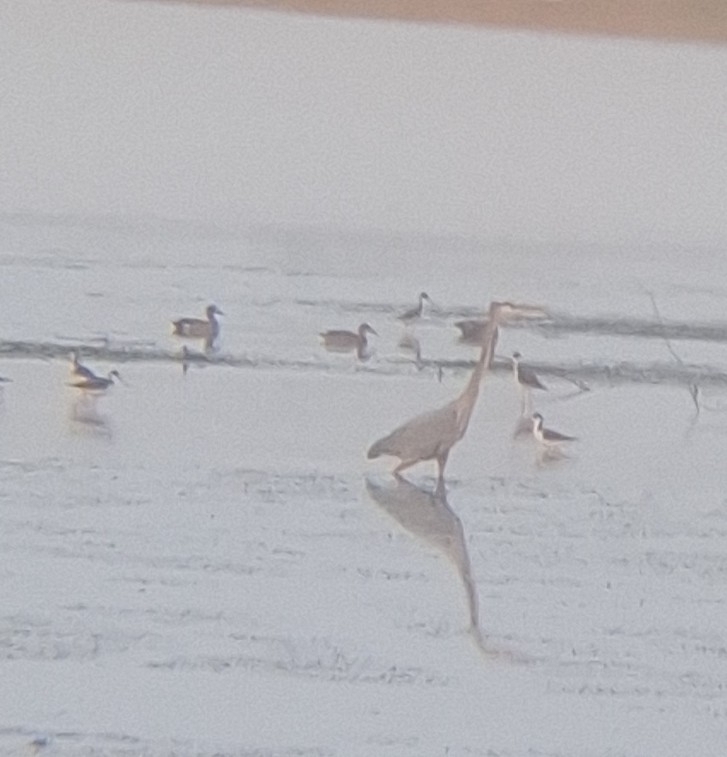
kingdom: Animalia
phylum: Chordata
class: Aves
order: Pelecaniformes
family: Ardeidae
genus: Ardea
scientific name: Ardea herodias
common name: Great blue heron
